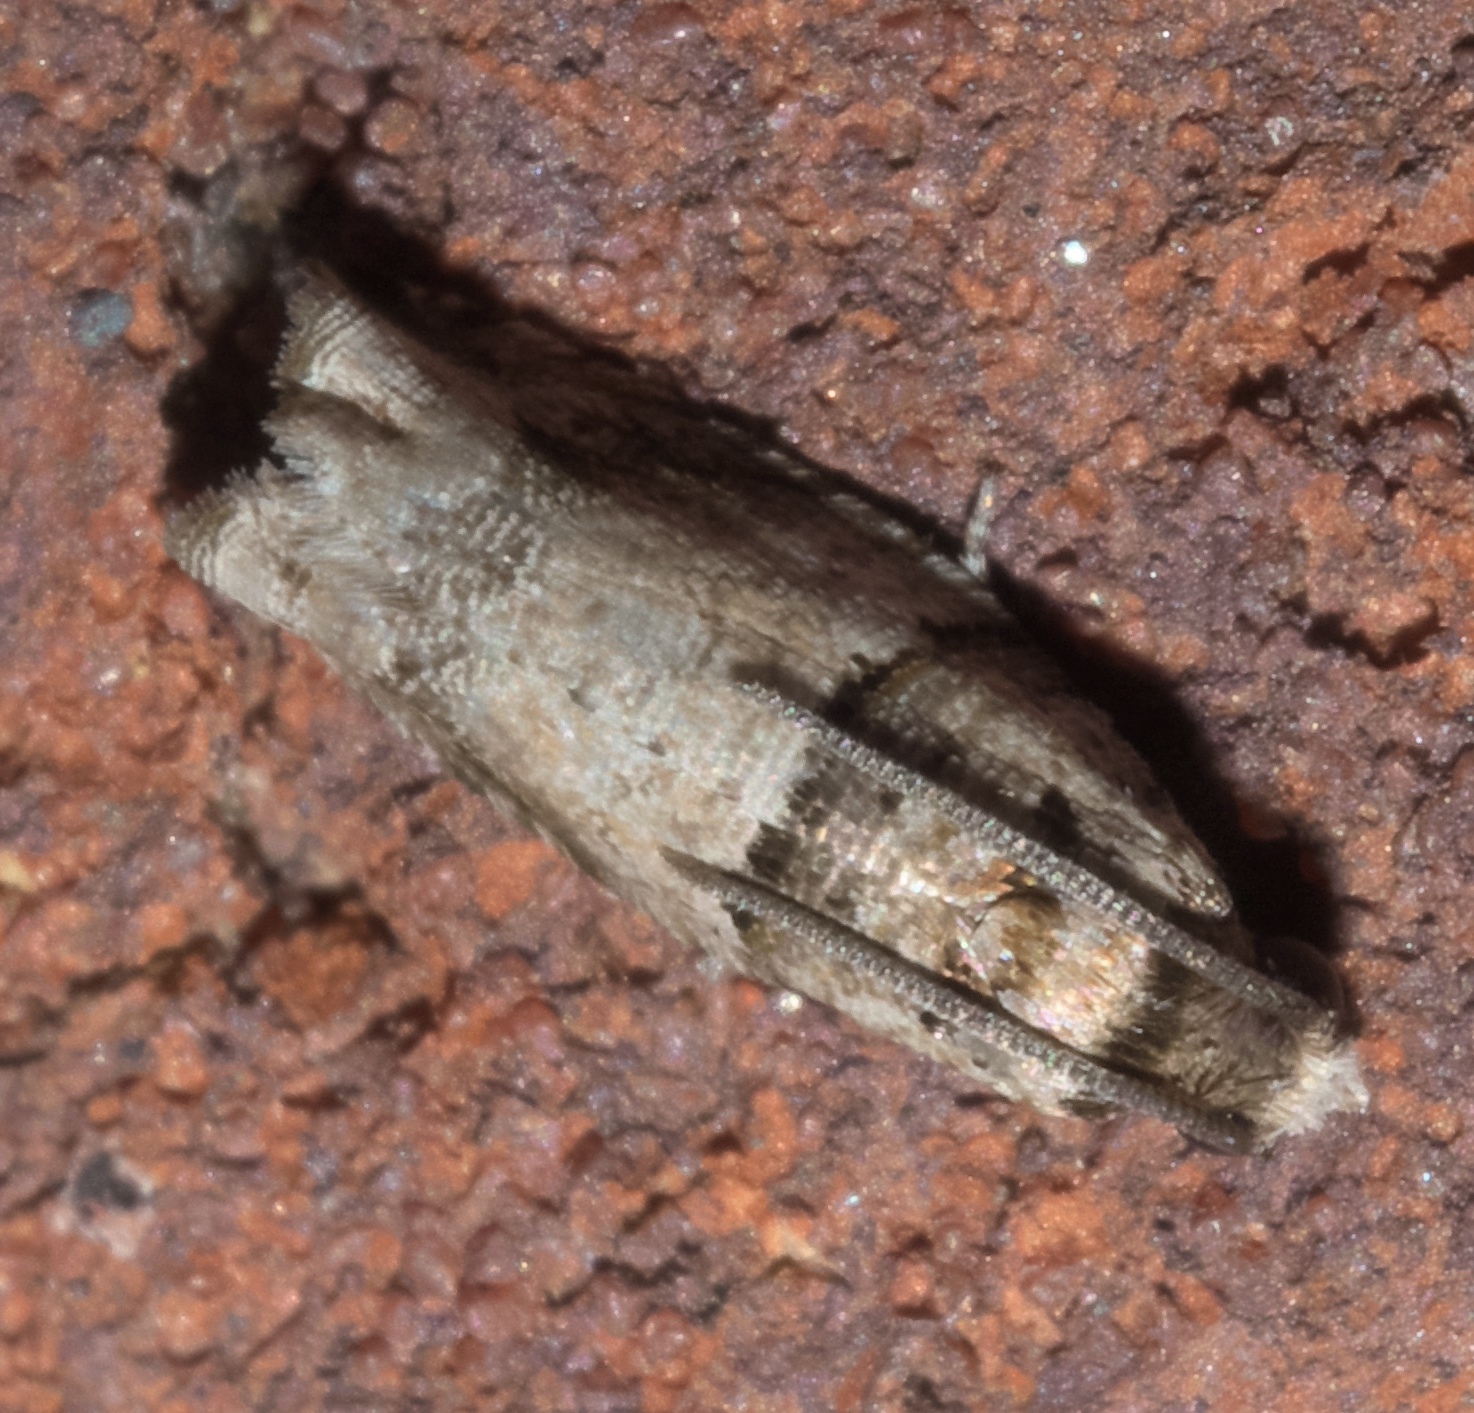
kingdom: Animalia
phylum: Arthropoda
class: Insecta
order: Lepidoptera
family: Tortricidae
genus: Rhopobota
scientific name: Rhopobota dietziana
